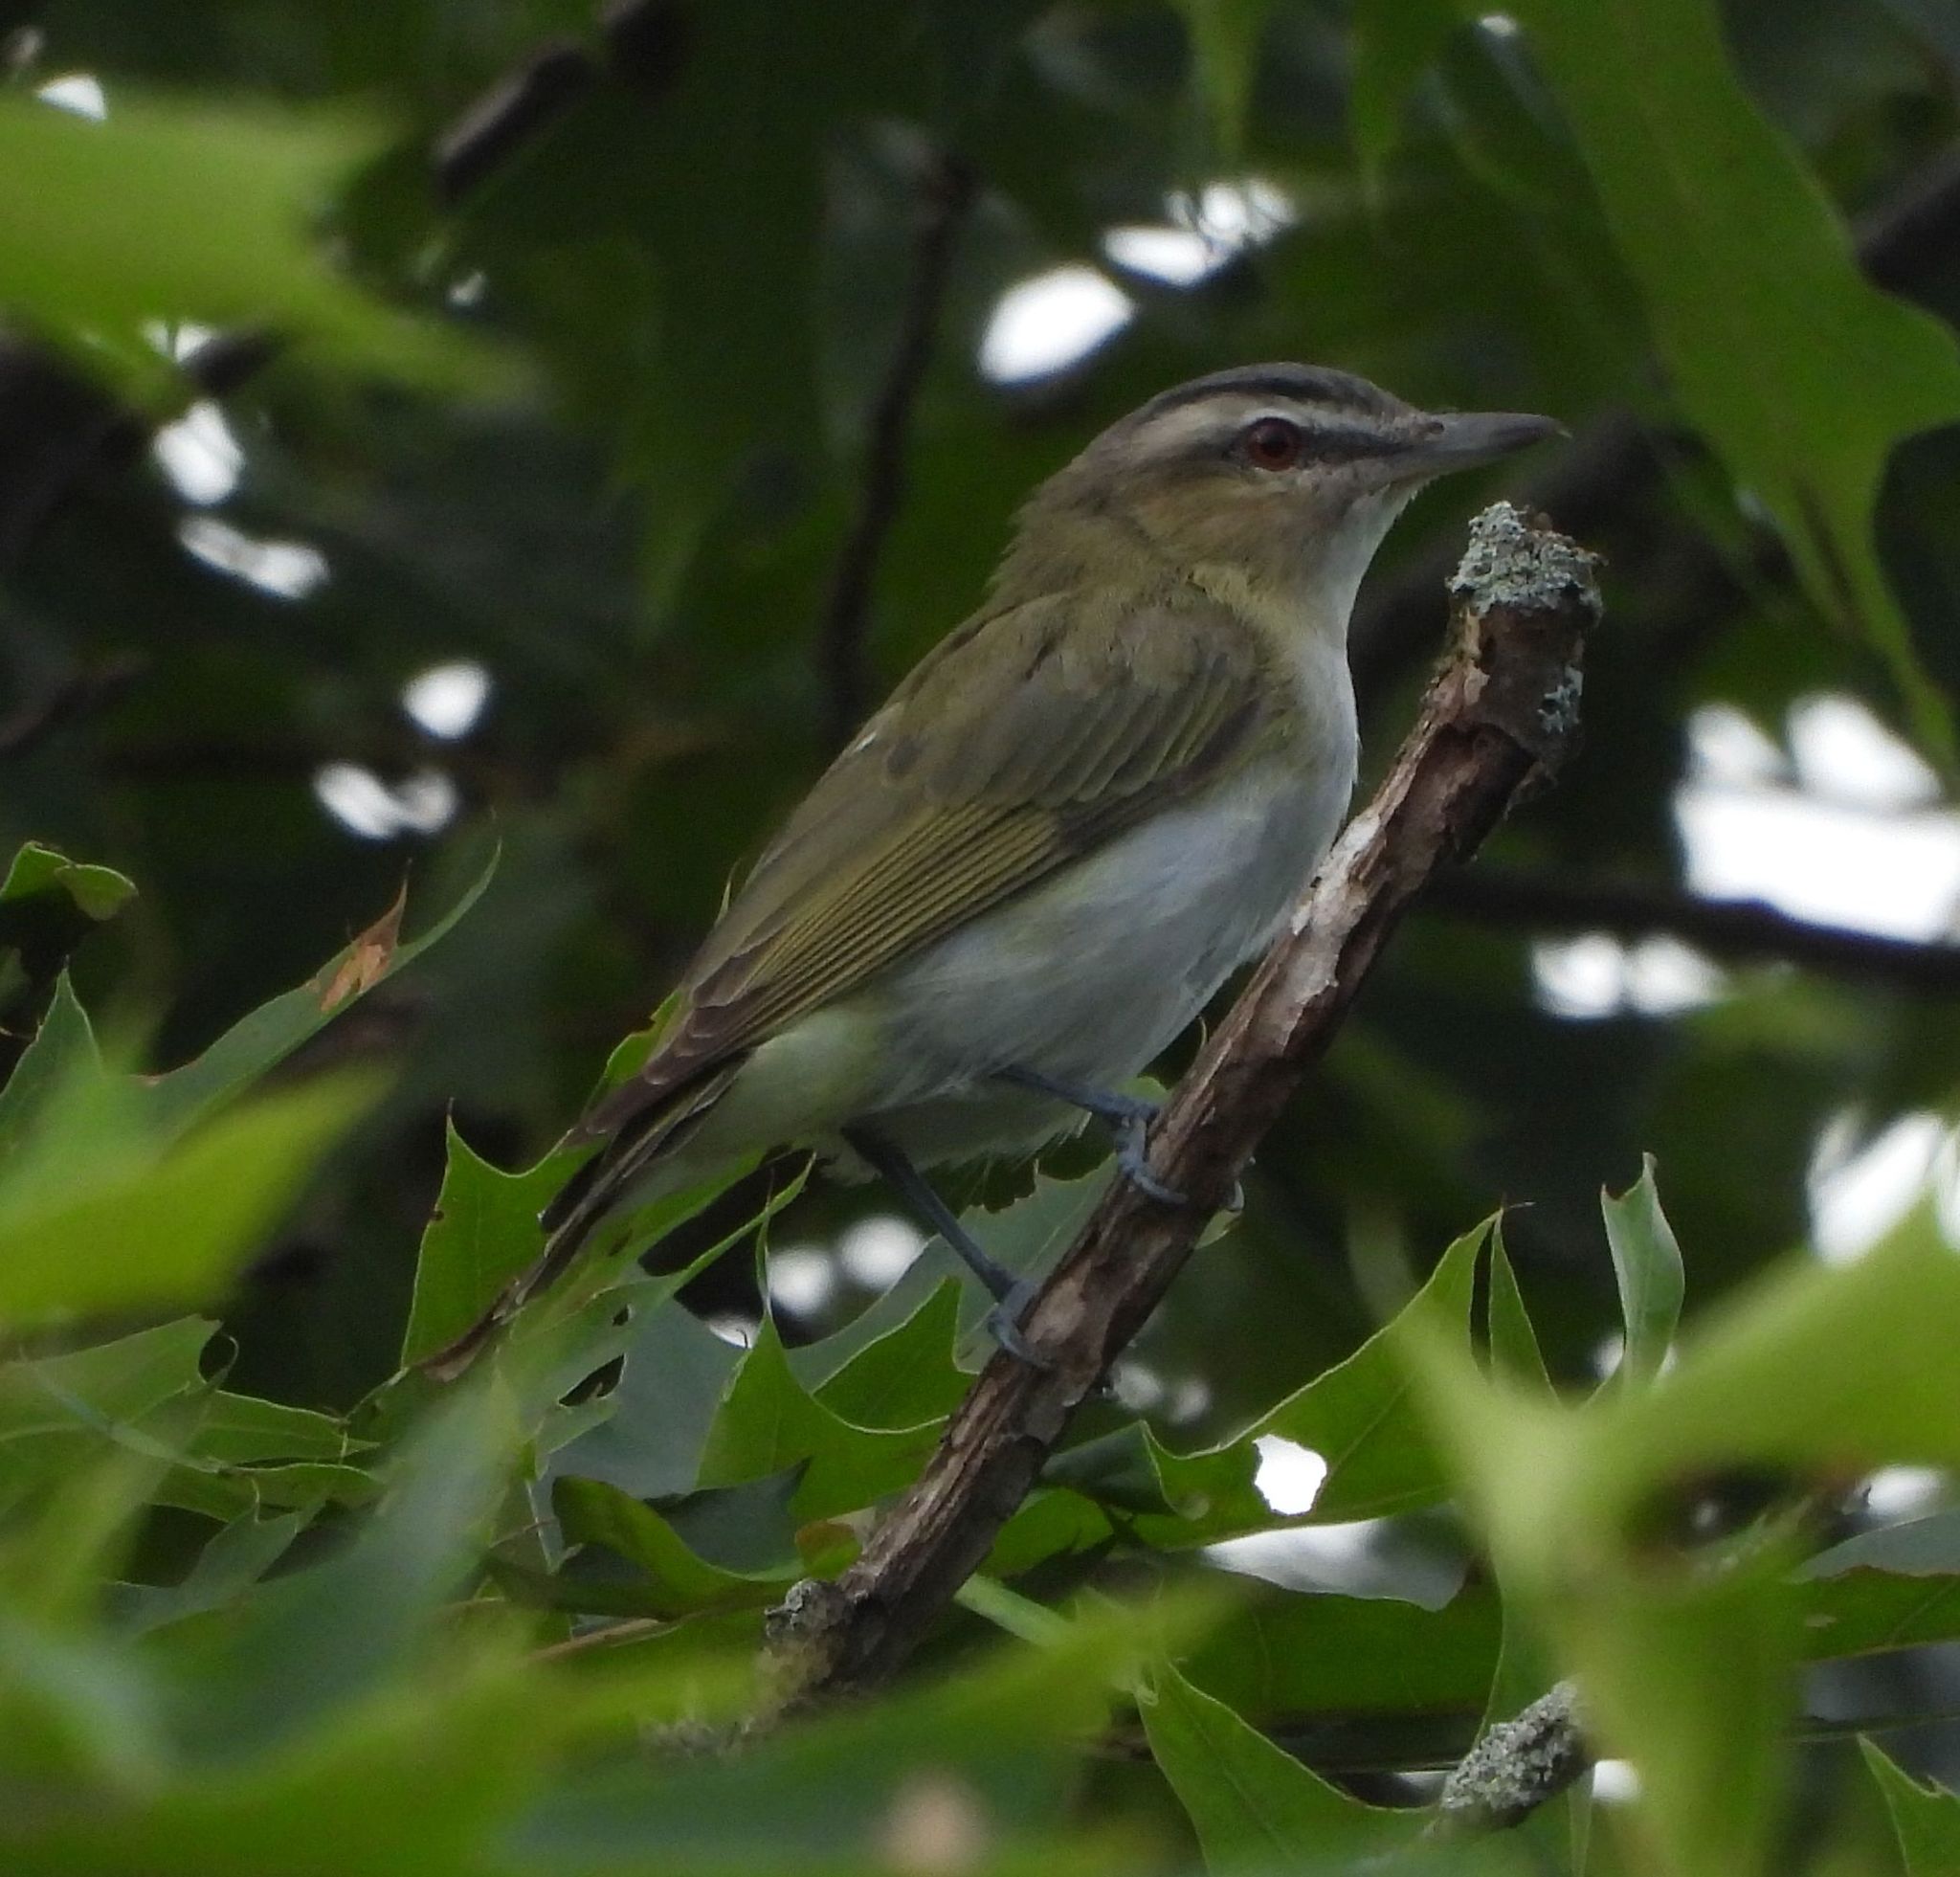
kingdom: Animalia
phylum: Chordata
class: Aves
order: Passeriformes
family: Vireonidae
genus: Vireo
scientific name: Vireo olivaceus
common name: Red-eyed vireo
